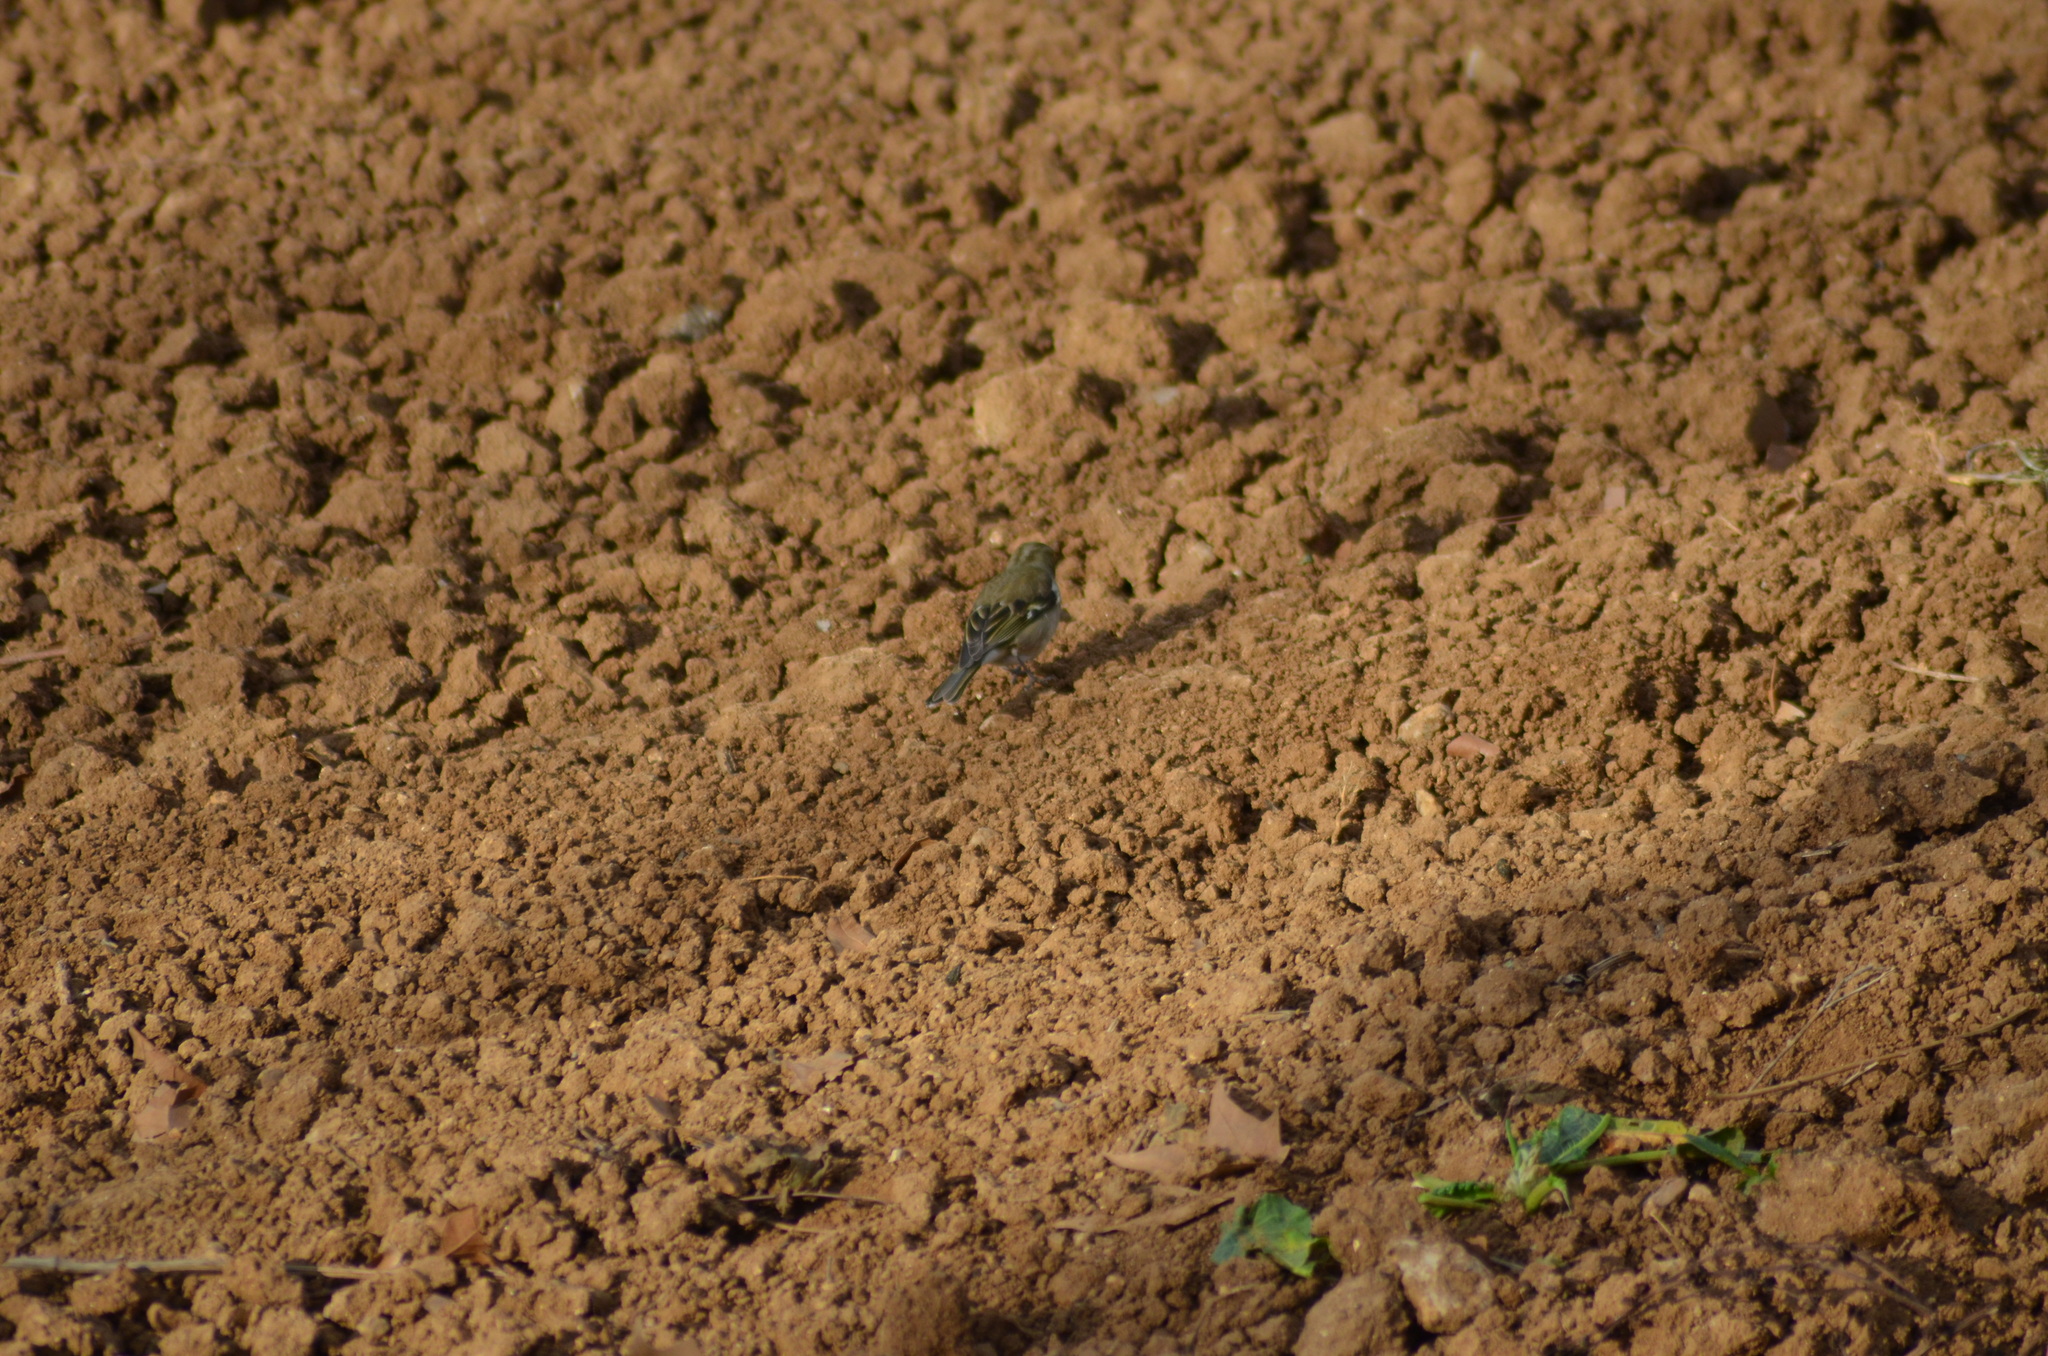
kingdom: Animalia
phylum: Chordata
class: Aves
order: Passeriformes
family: Fringillidae
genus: Fringilla
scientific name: Fringilla coelebs
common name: Common chaffinch
